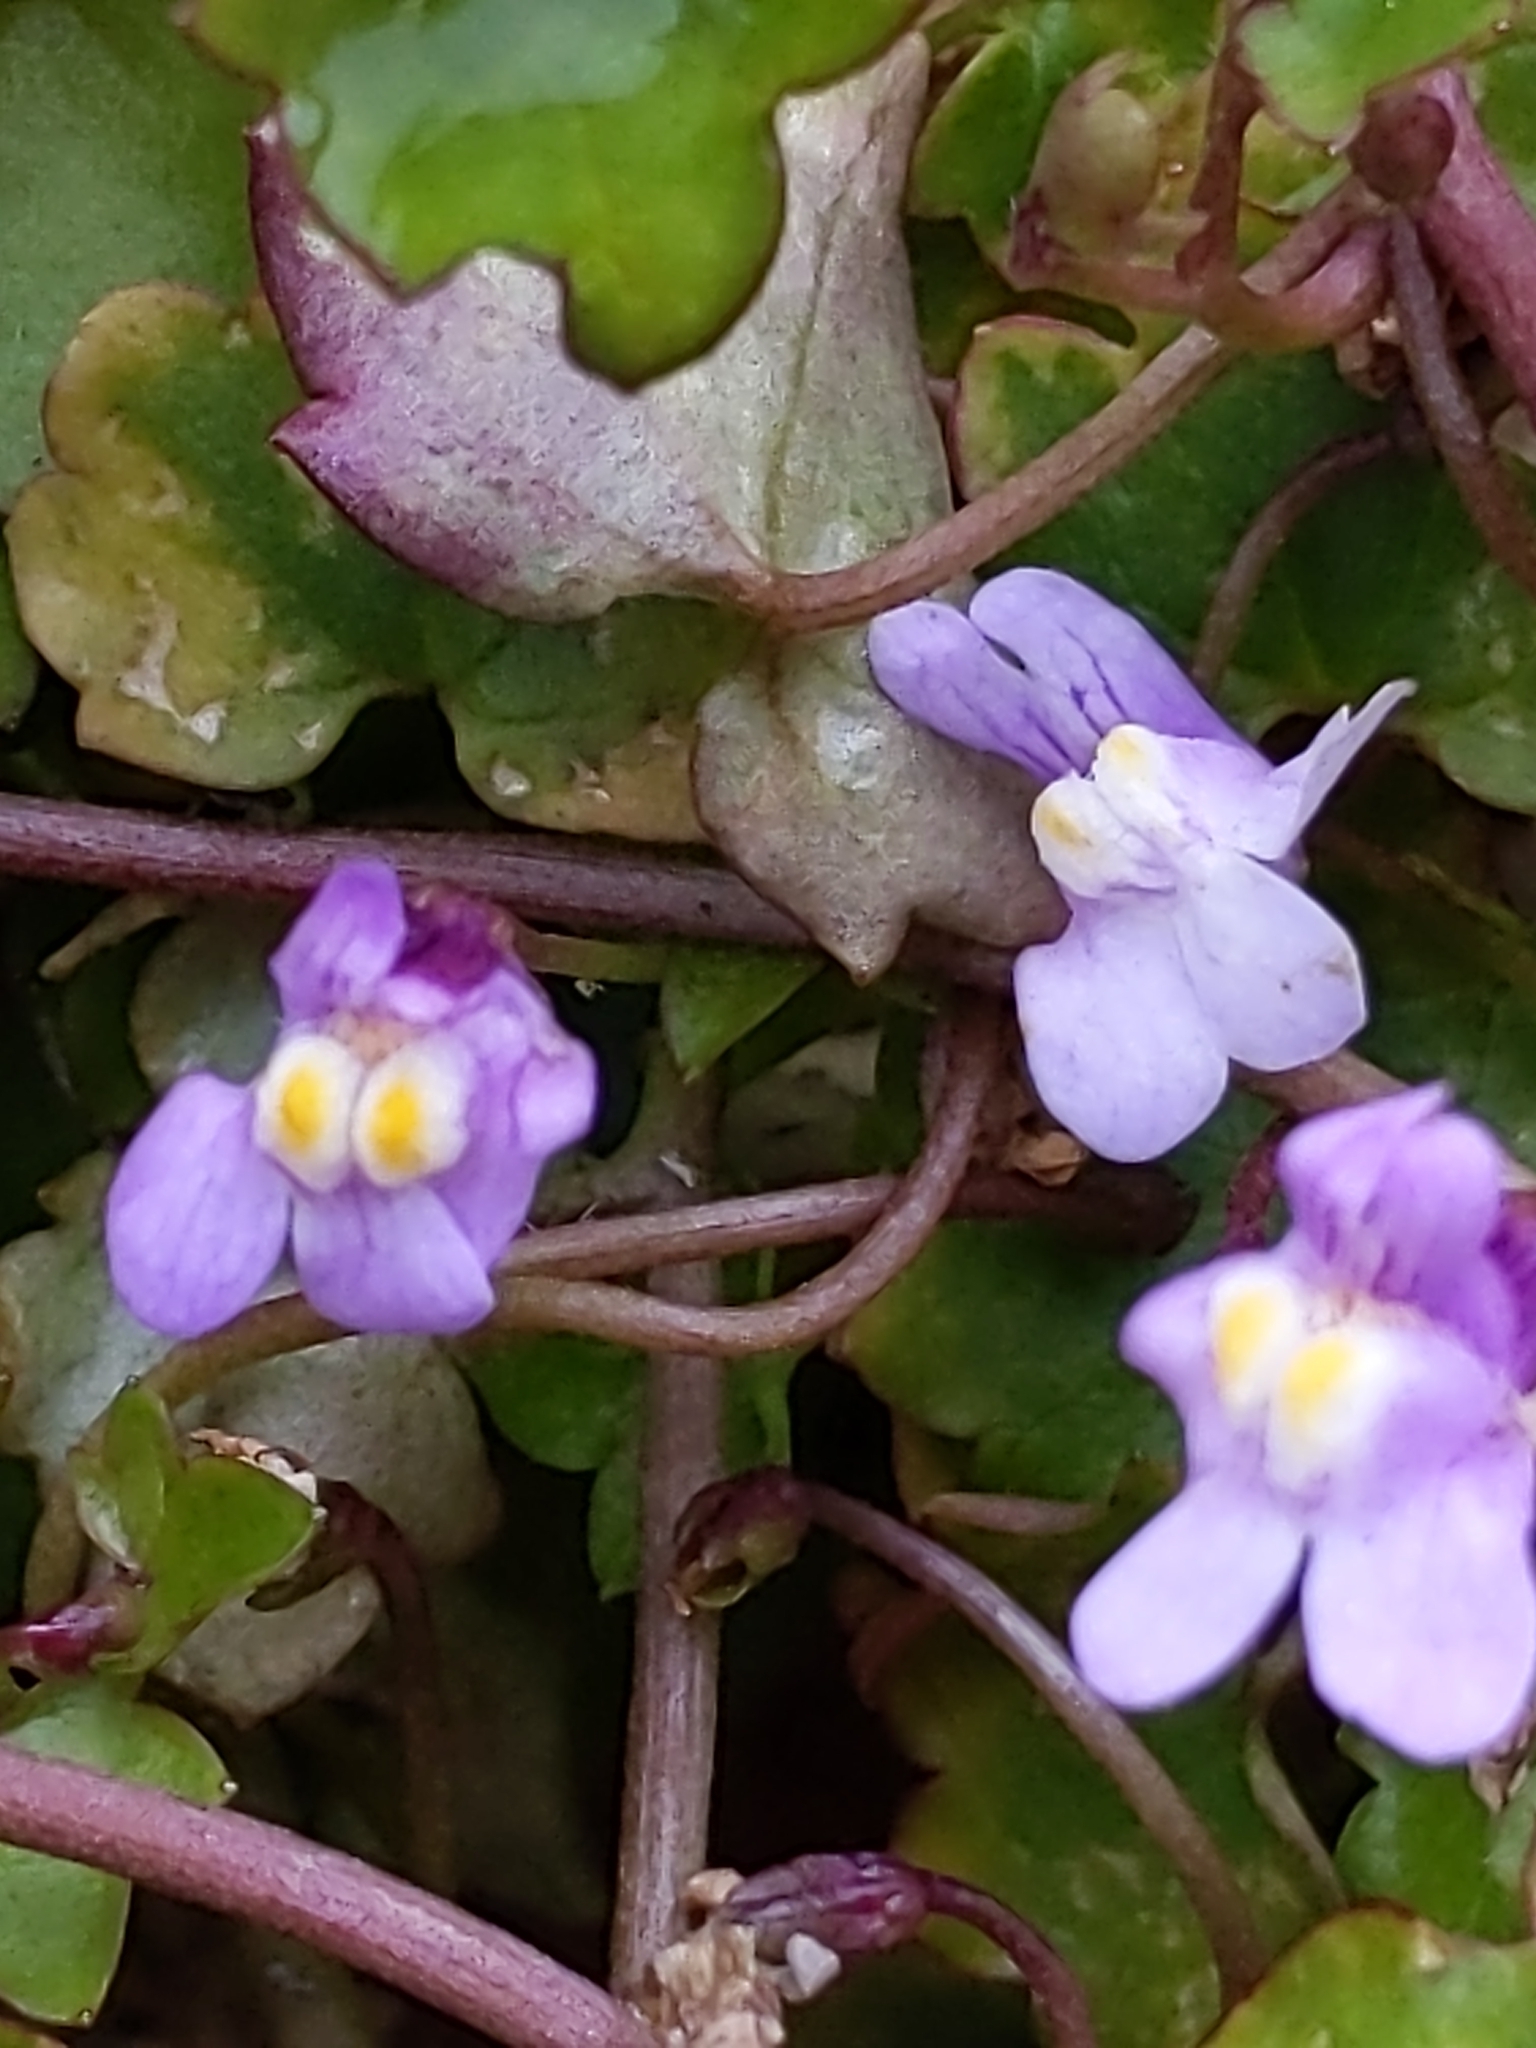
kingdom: Plantae
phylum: Tracheophyta
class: Magnoliopsida
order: Lamiales
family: Plantaginaceae
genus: Cymbalaria
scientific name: Cymbalaria muralis
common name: Ivy-leaved toadflax
